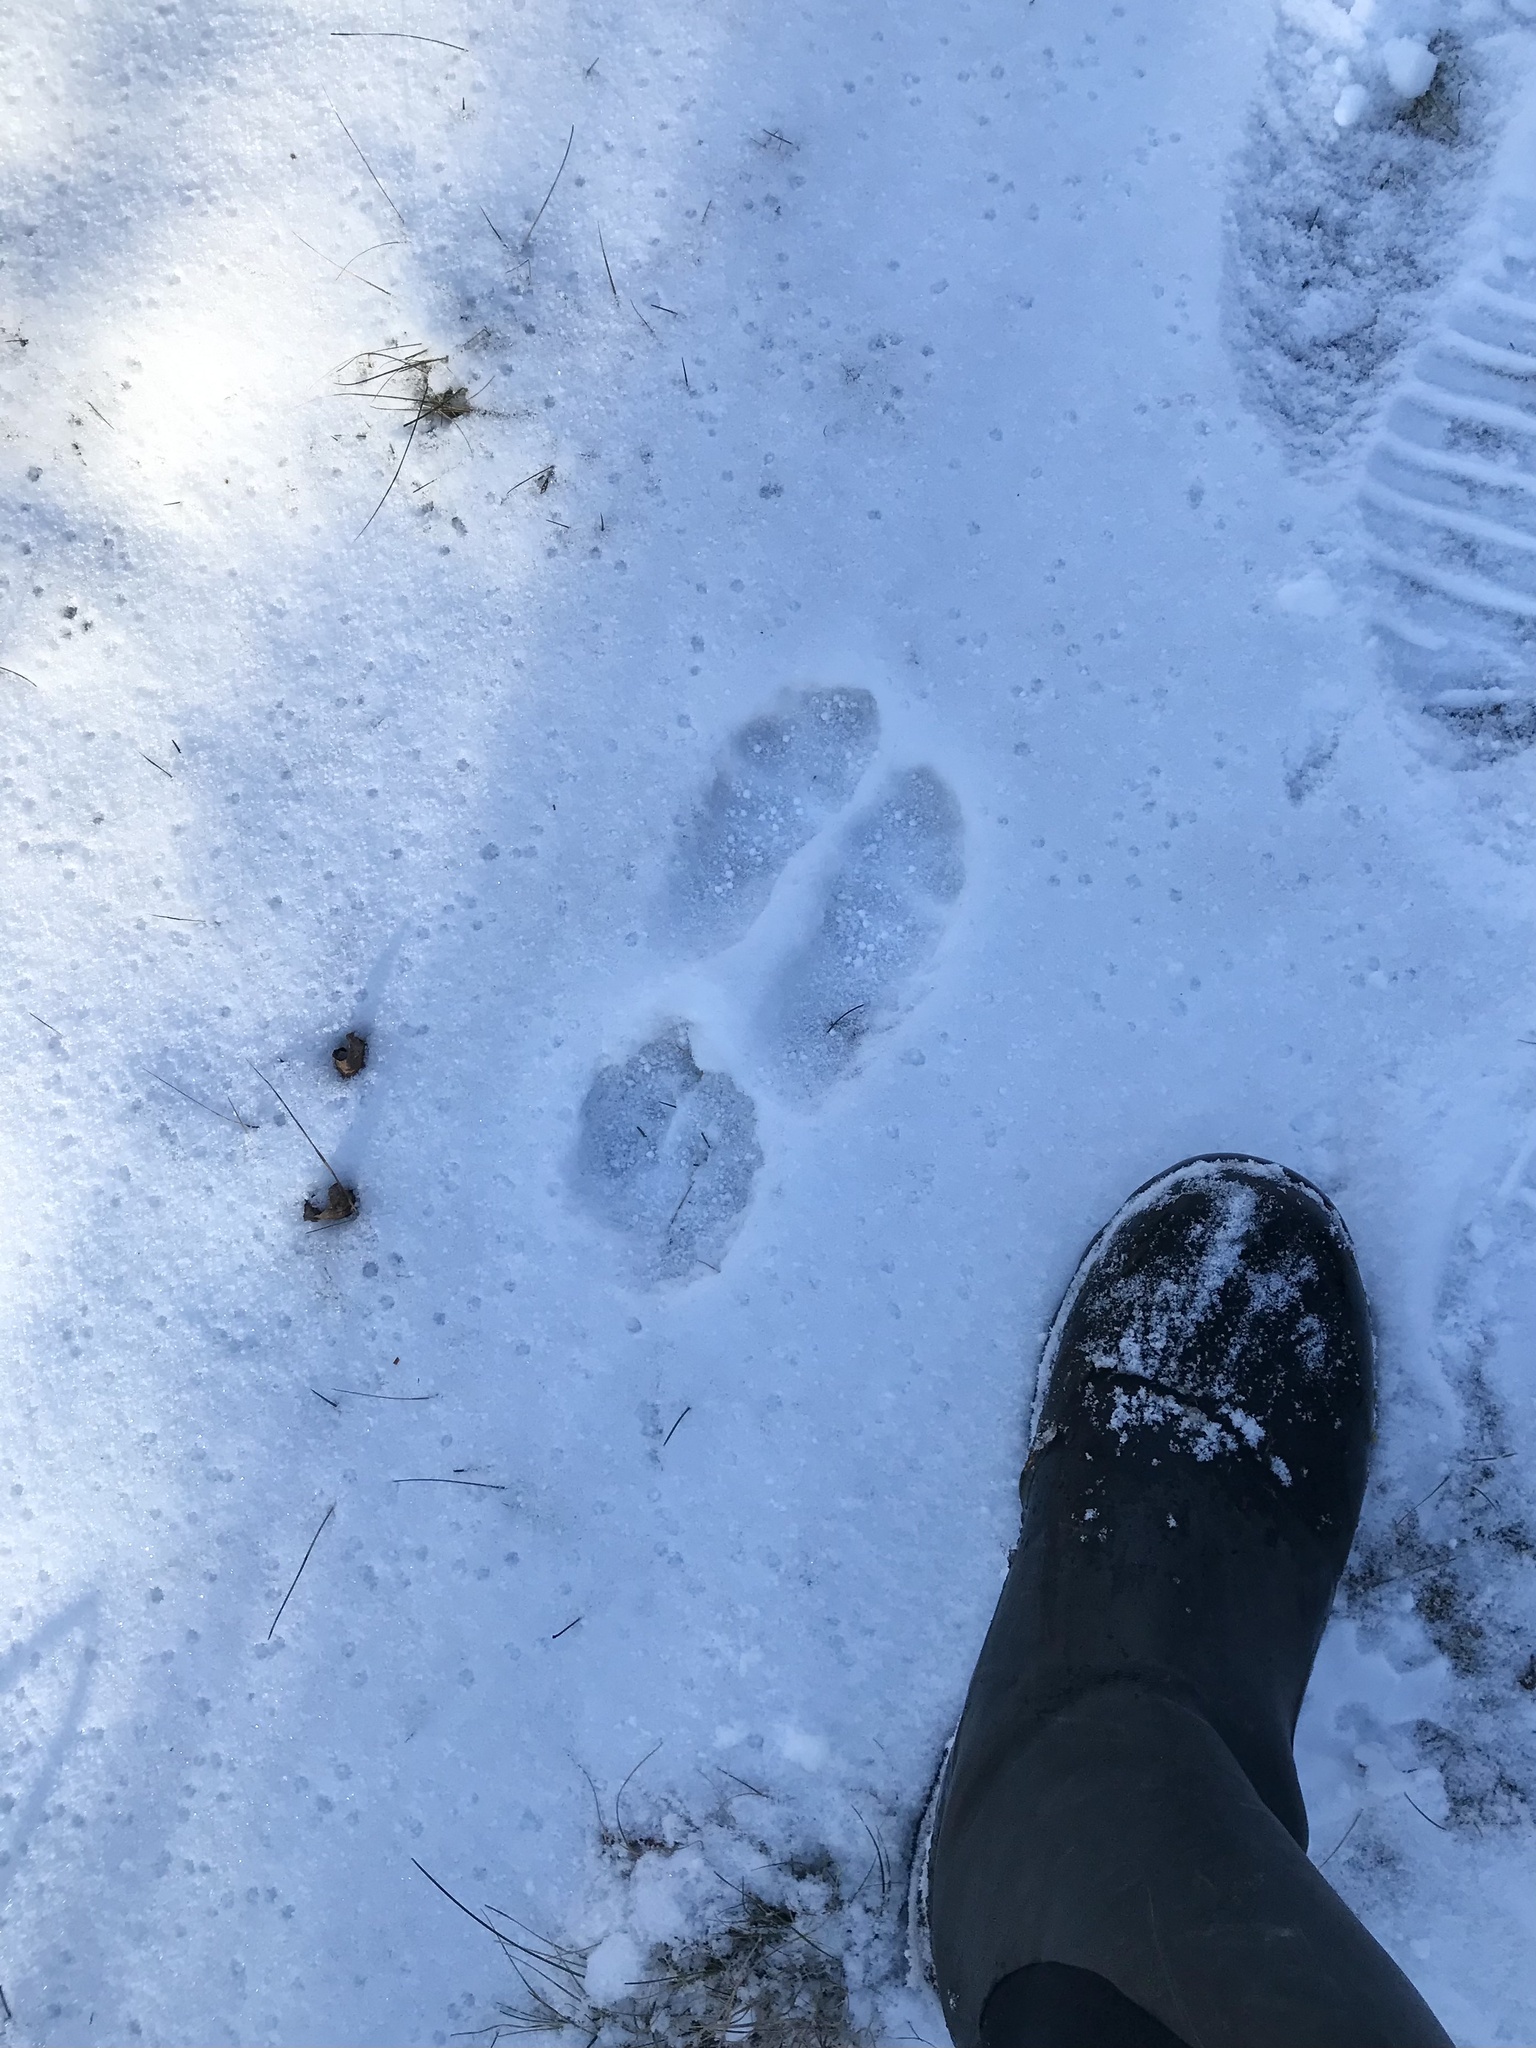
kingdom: Animalia
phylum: Chordata
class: Mammalia
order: Lagomorpha
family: Leporidae
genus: Lepus
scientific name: Lepus americanus
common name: Snowshoe hare
